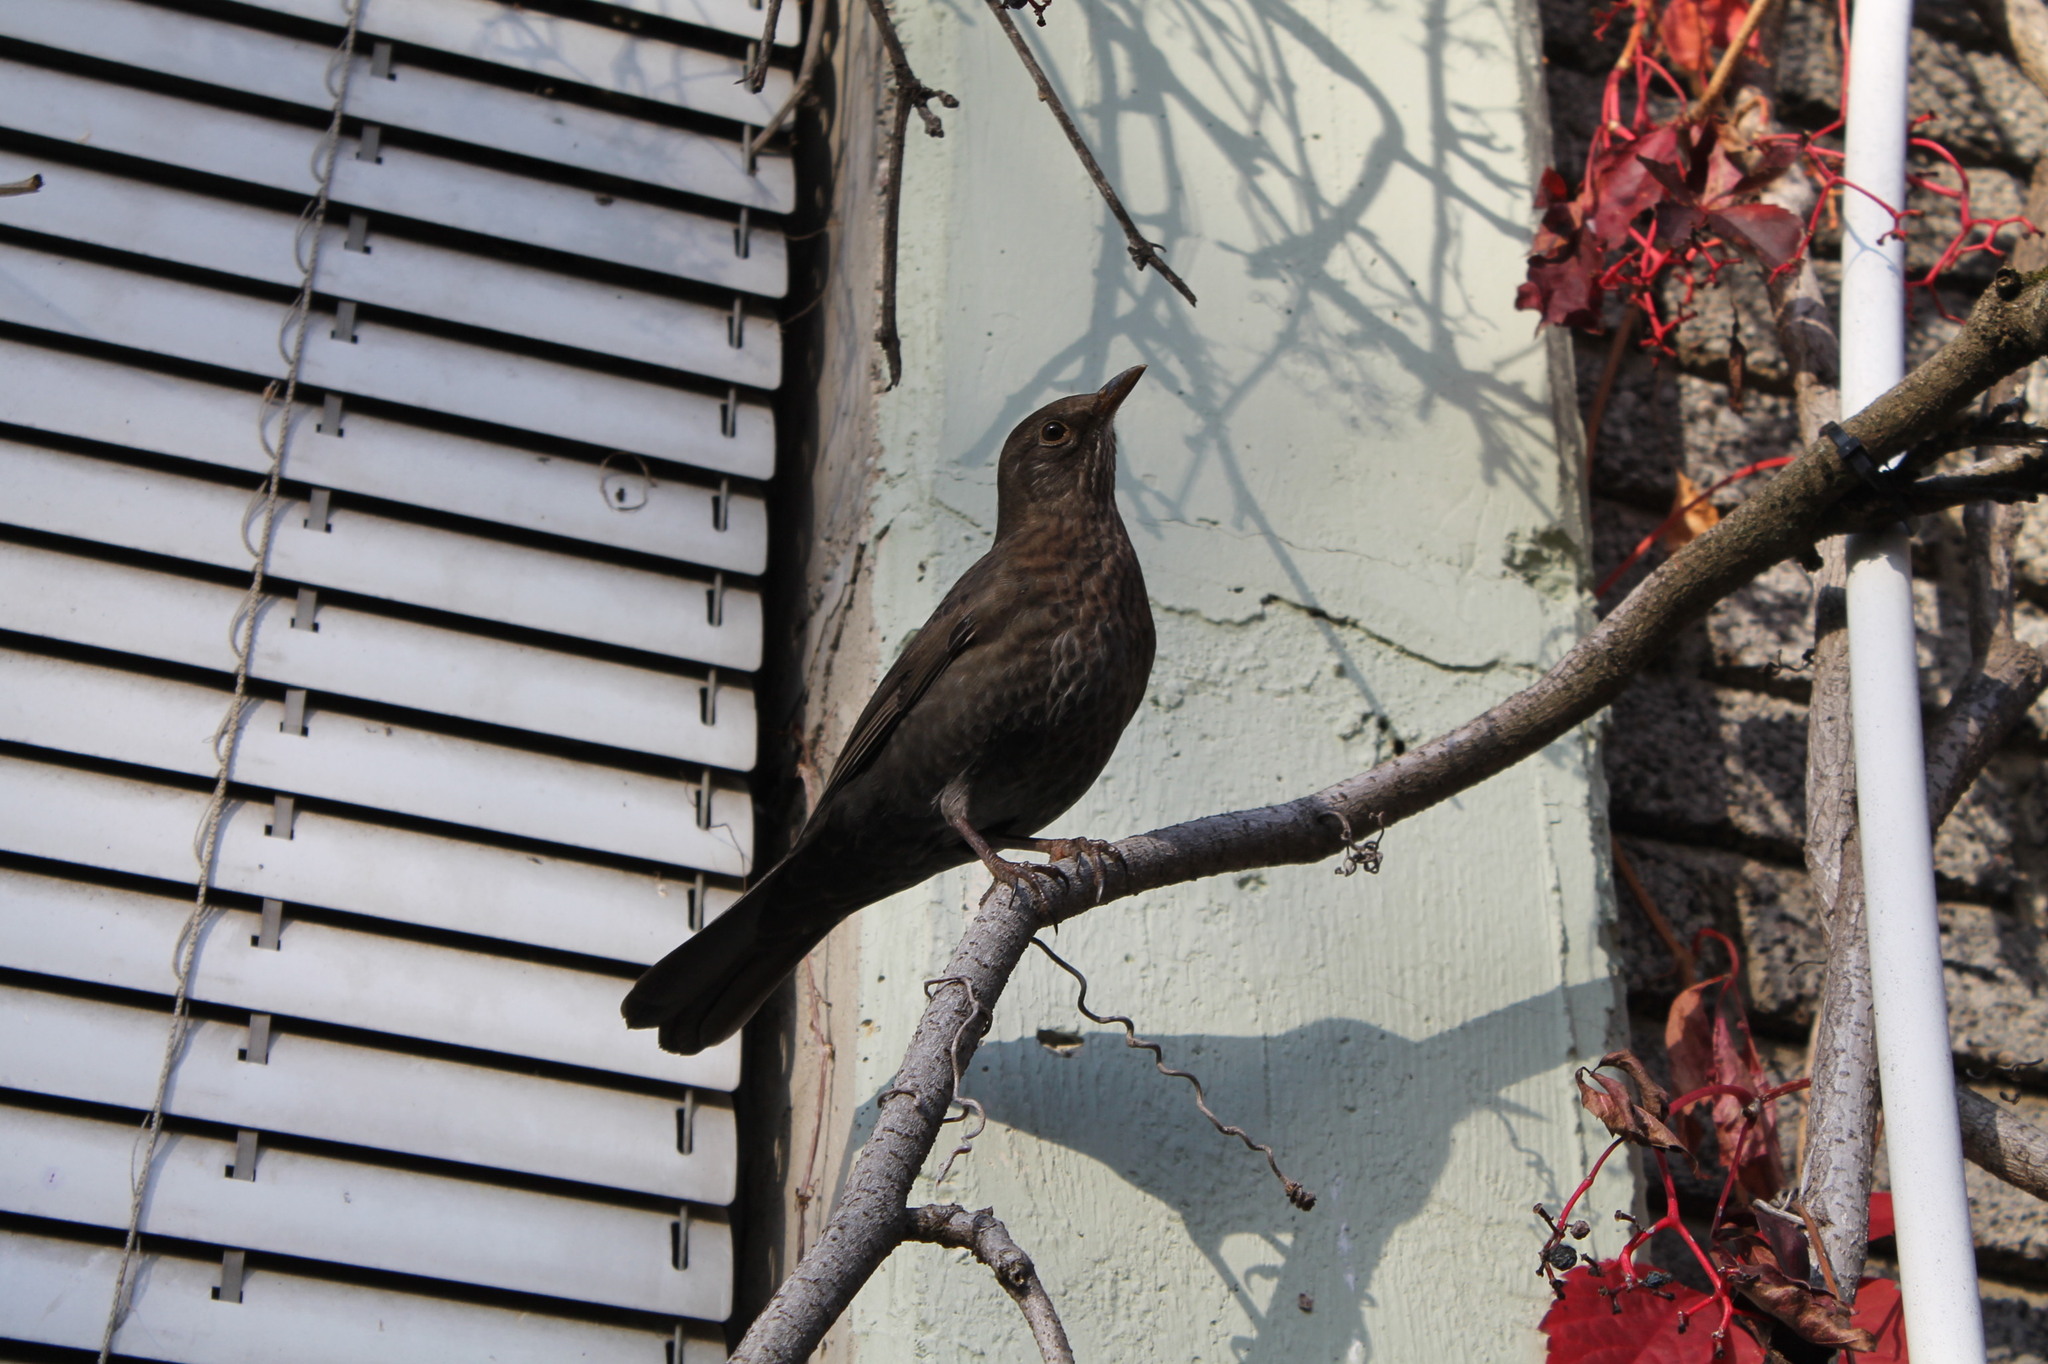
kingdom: Animalia
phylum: Chordata
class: Aves
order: Passeriformes
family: Turdidae
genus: Turdus
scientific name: Turdus merula
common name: Common blackbird
